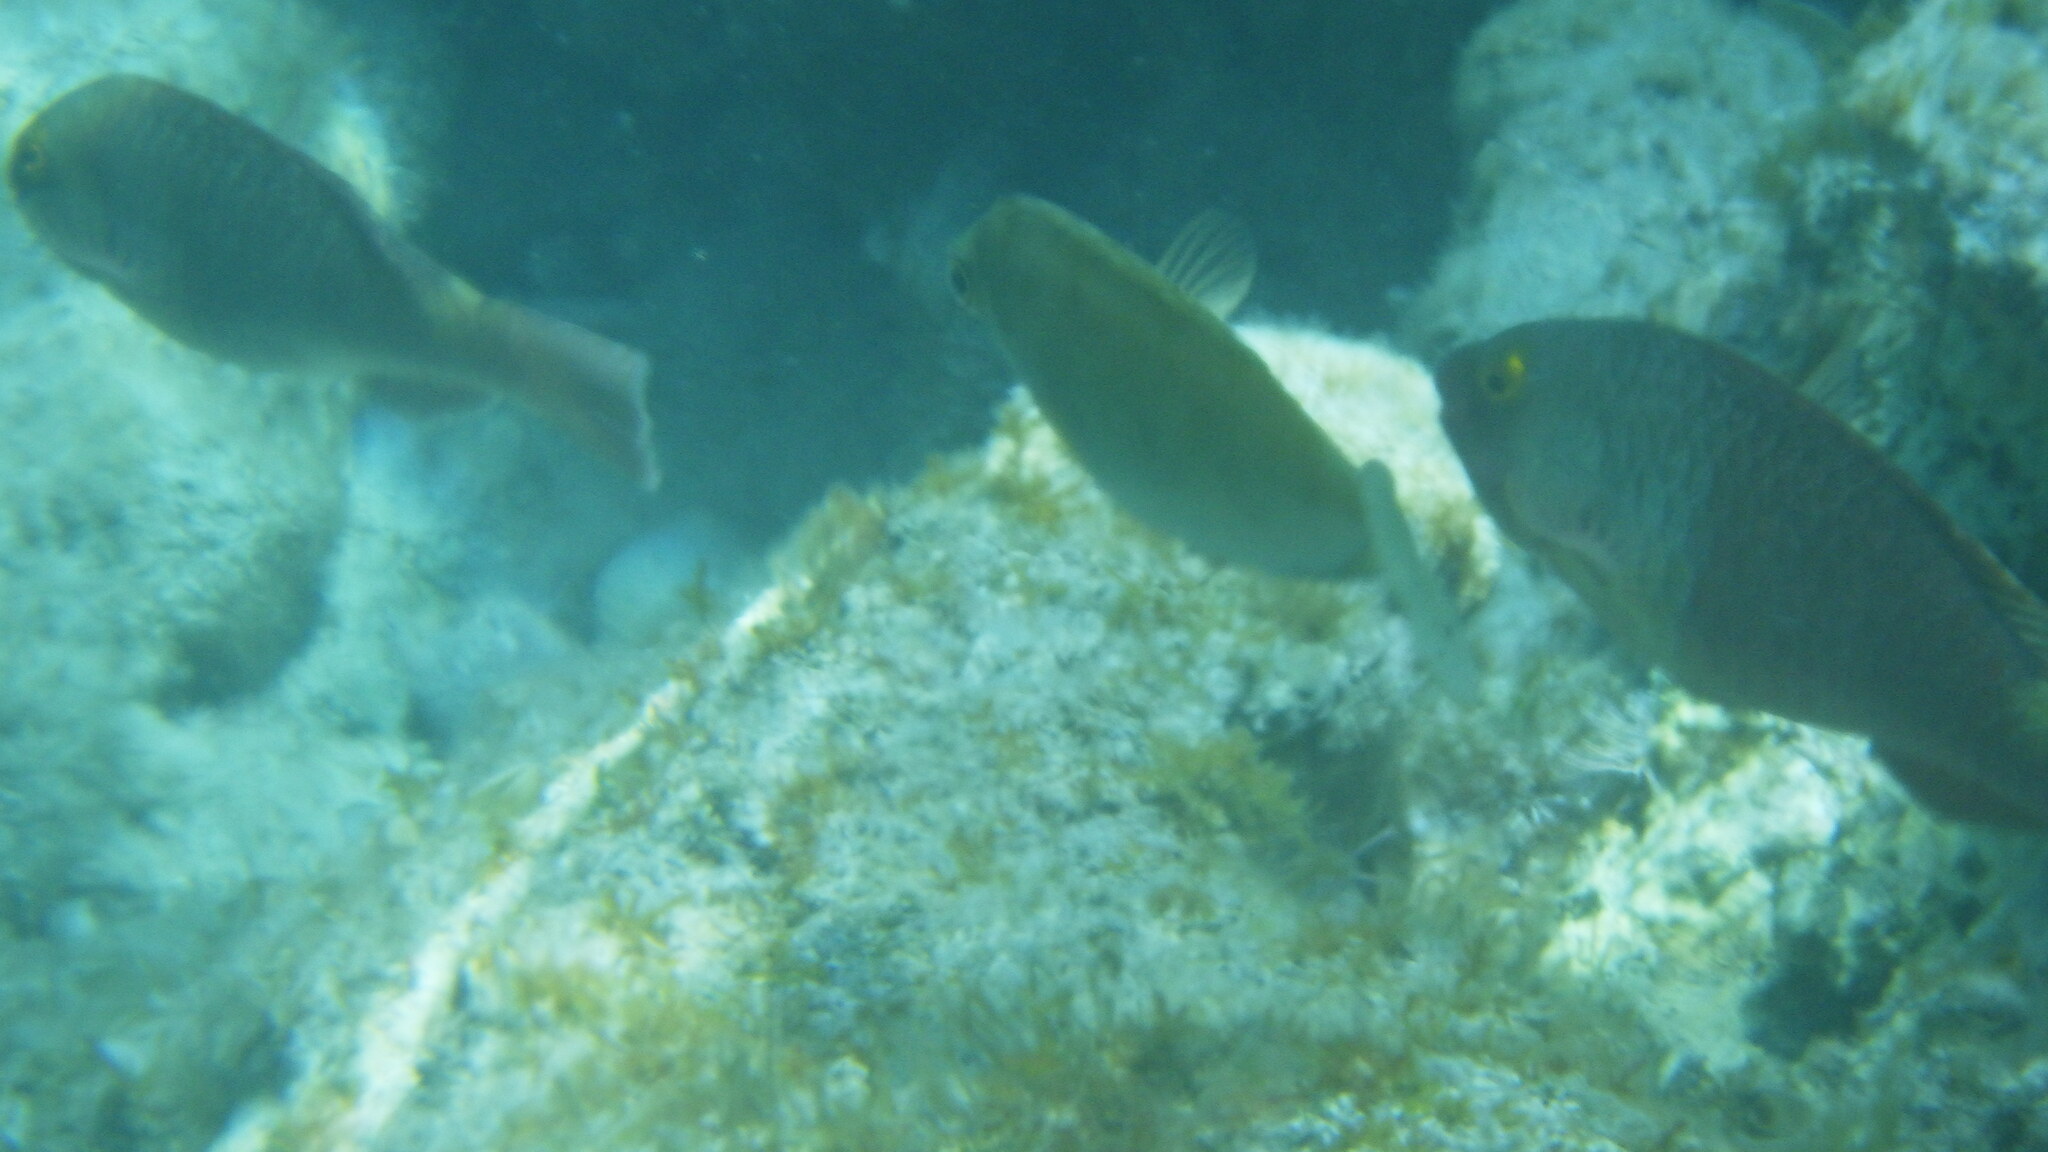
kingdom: Animalia
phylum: Chordata
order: Perciformes
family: Siganidae
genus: Siganus
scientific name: Siganus luridus
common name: Dusky spinefoot
